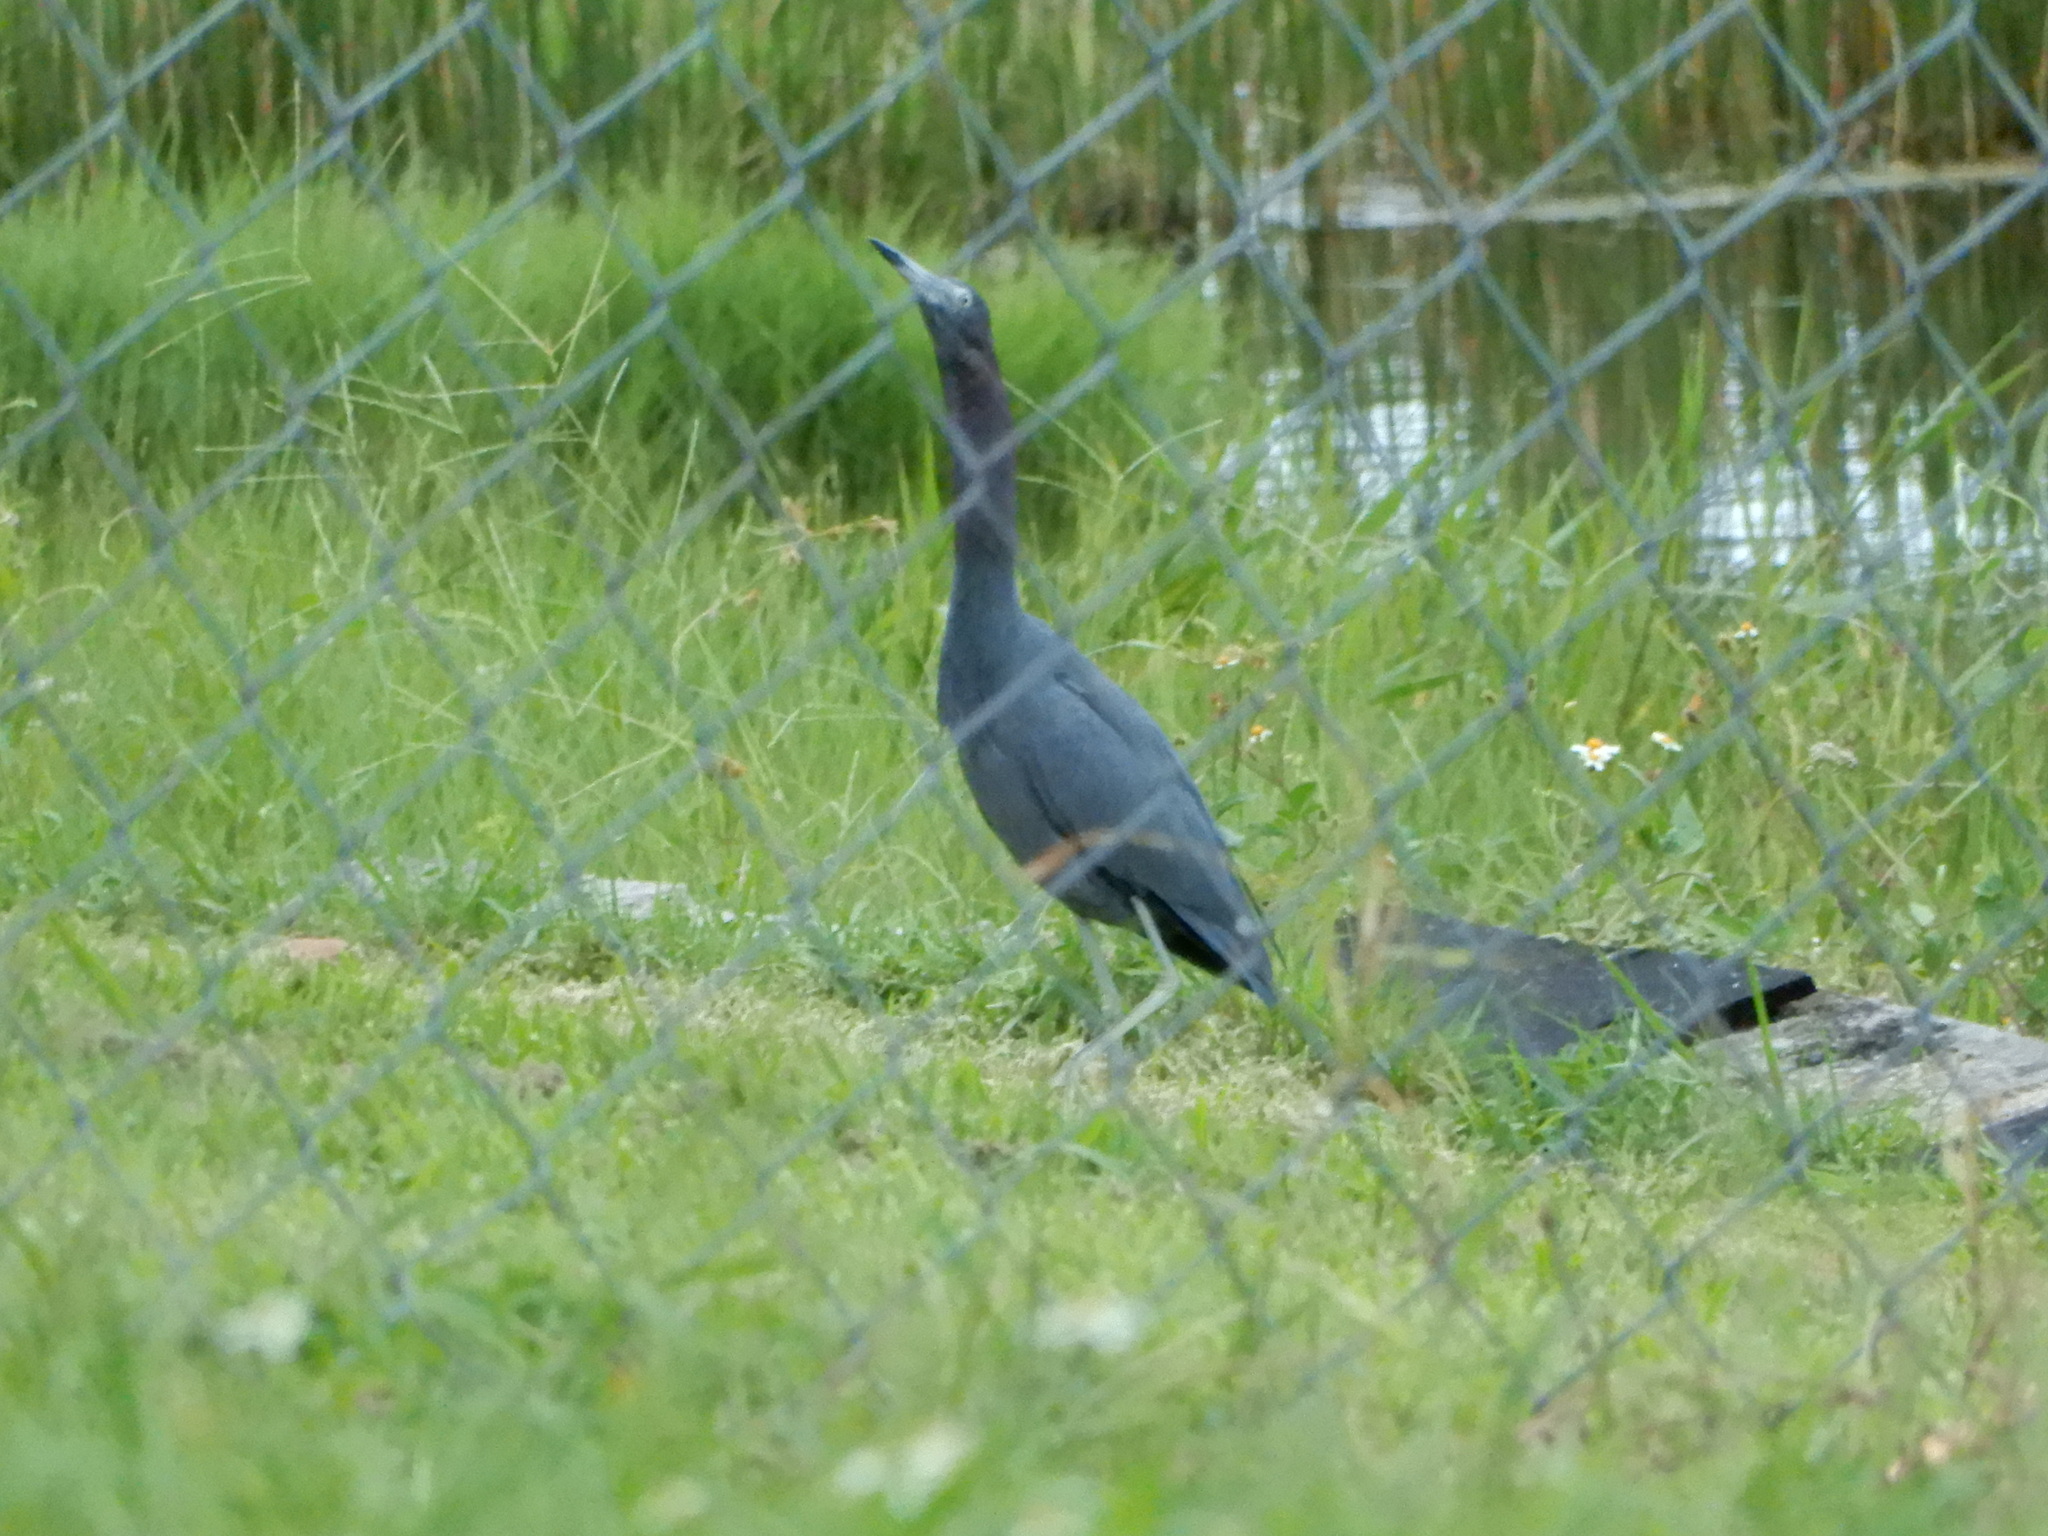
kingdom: Animalia
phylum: Chordata
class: Aves
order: Pelecaniformes
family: Ardeidae
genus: Egretta
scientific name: Egretta caerulea
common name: Little blue heron
